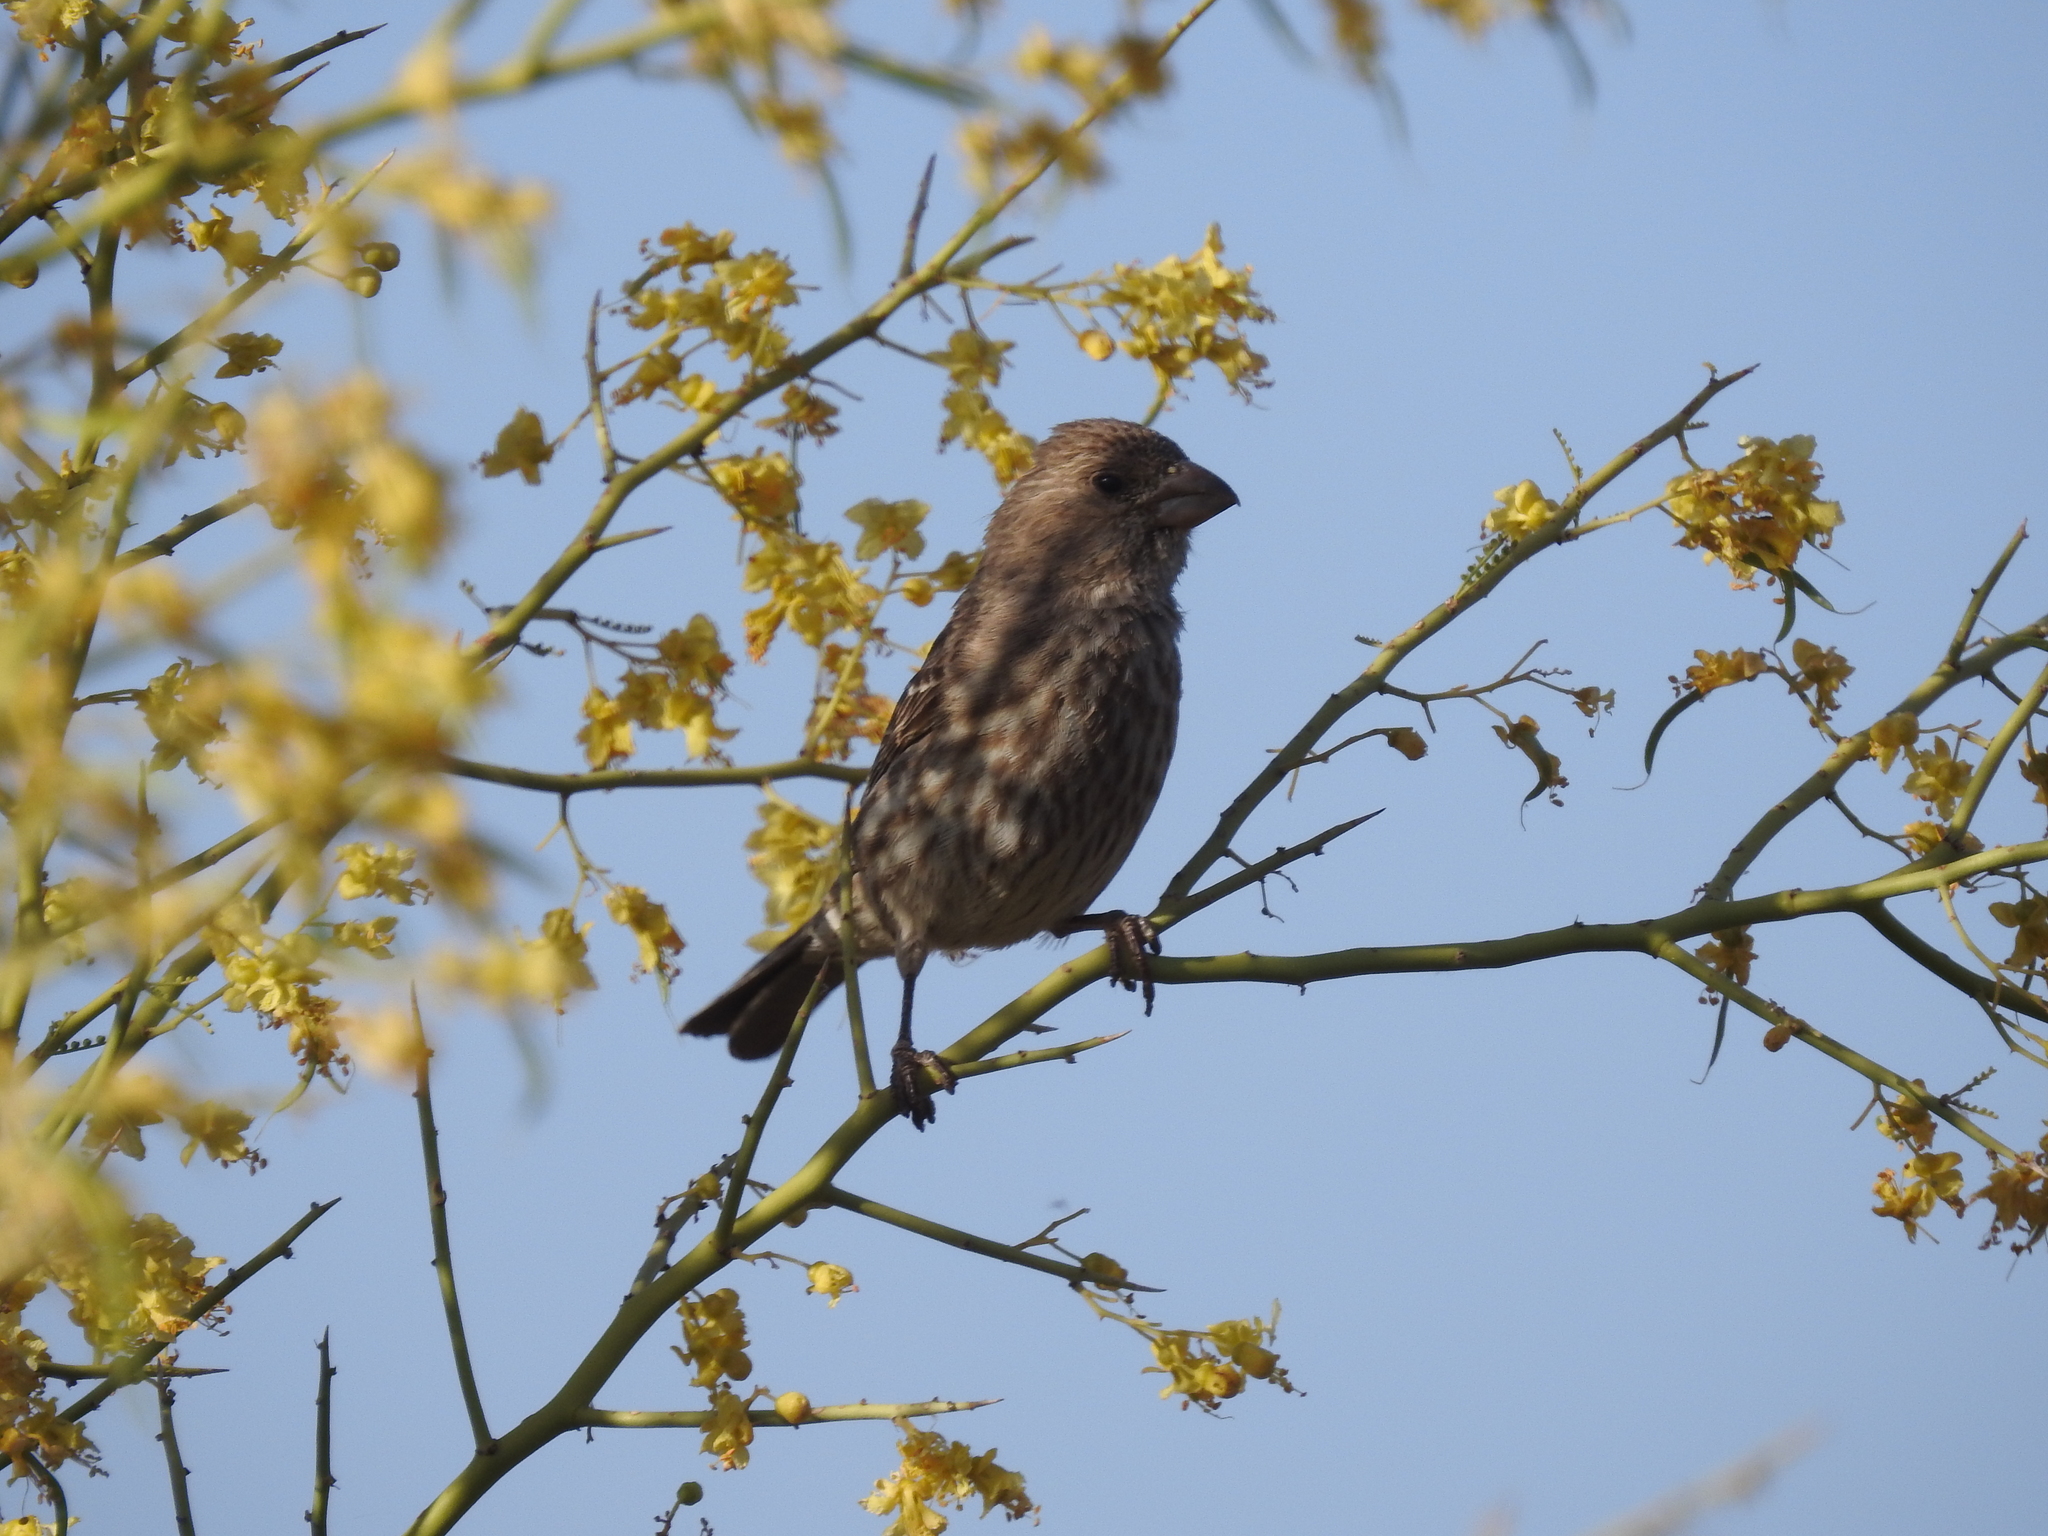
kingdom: Animalia
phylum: Chordata
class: Aves
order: Passeriformes
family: Fringillidae
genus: Haemorhous
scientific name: Haemorhous mexicanus
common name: House finch
